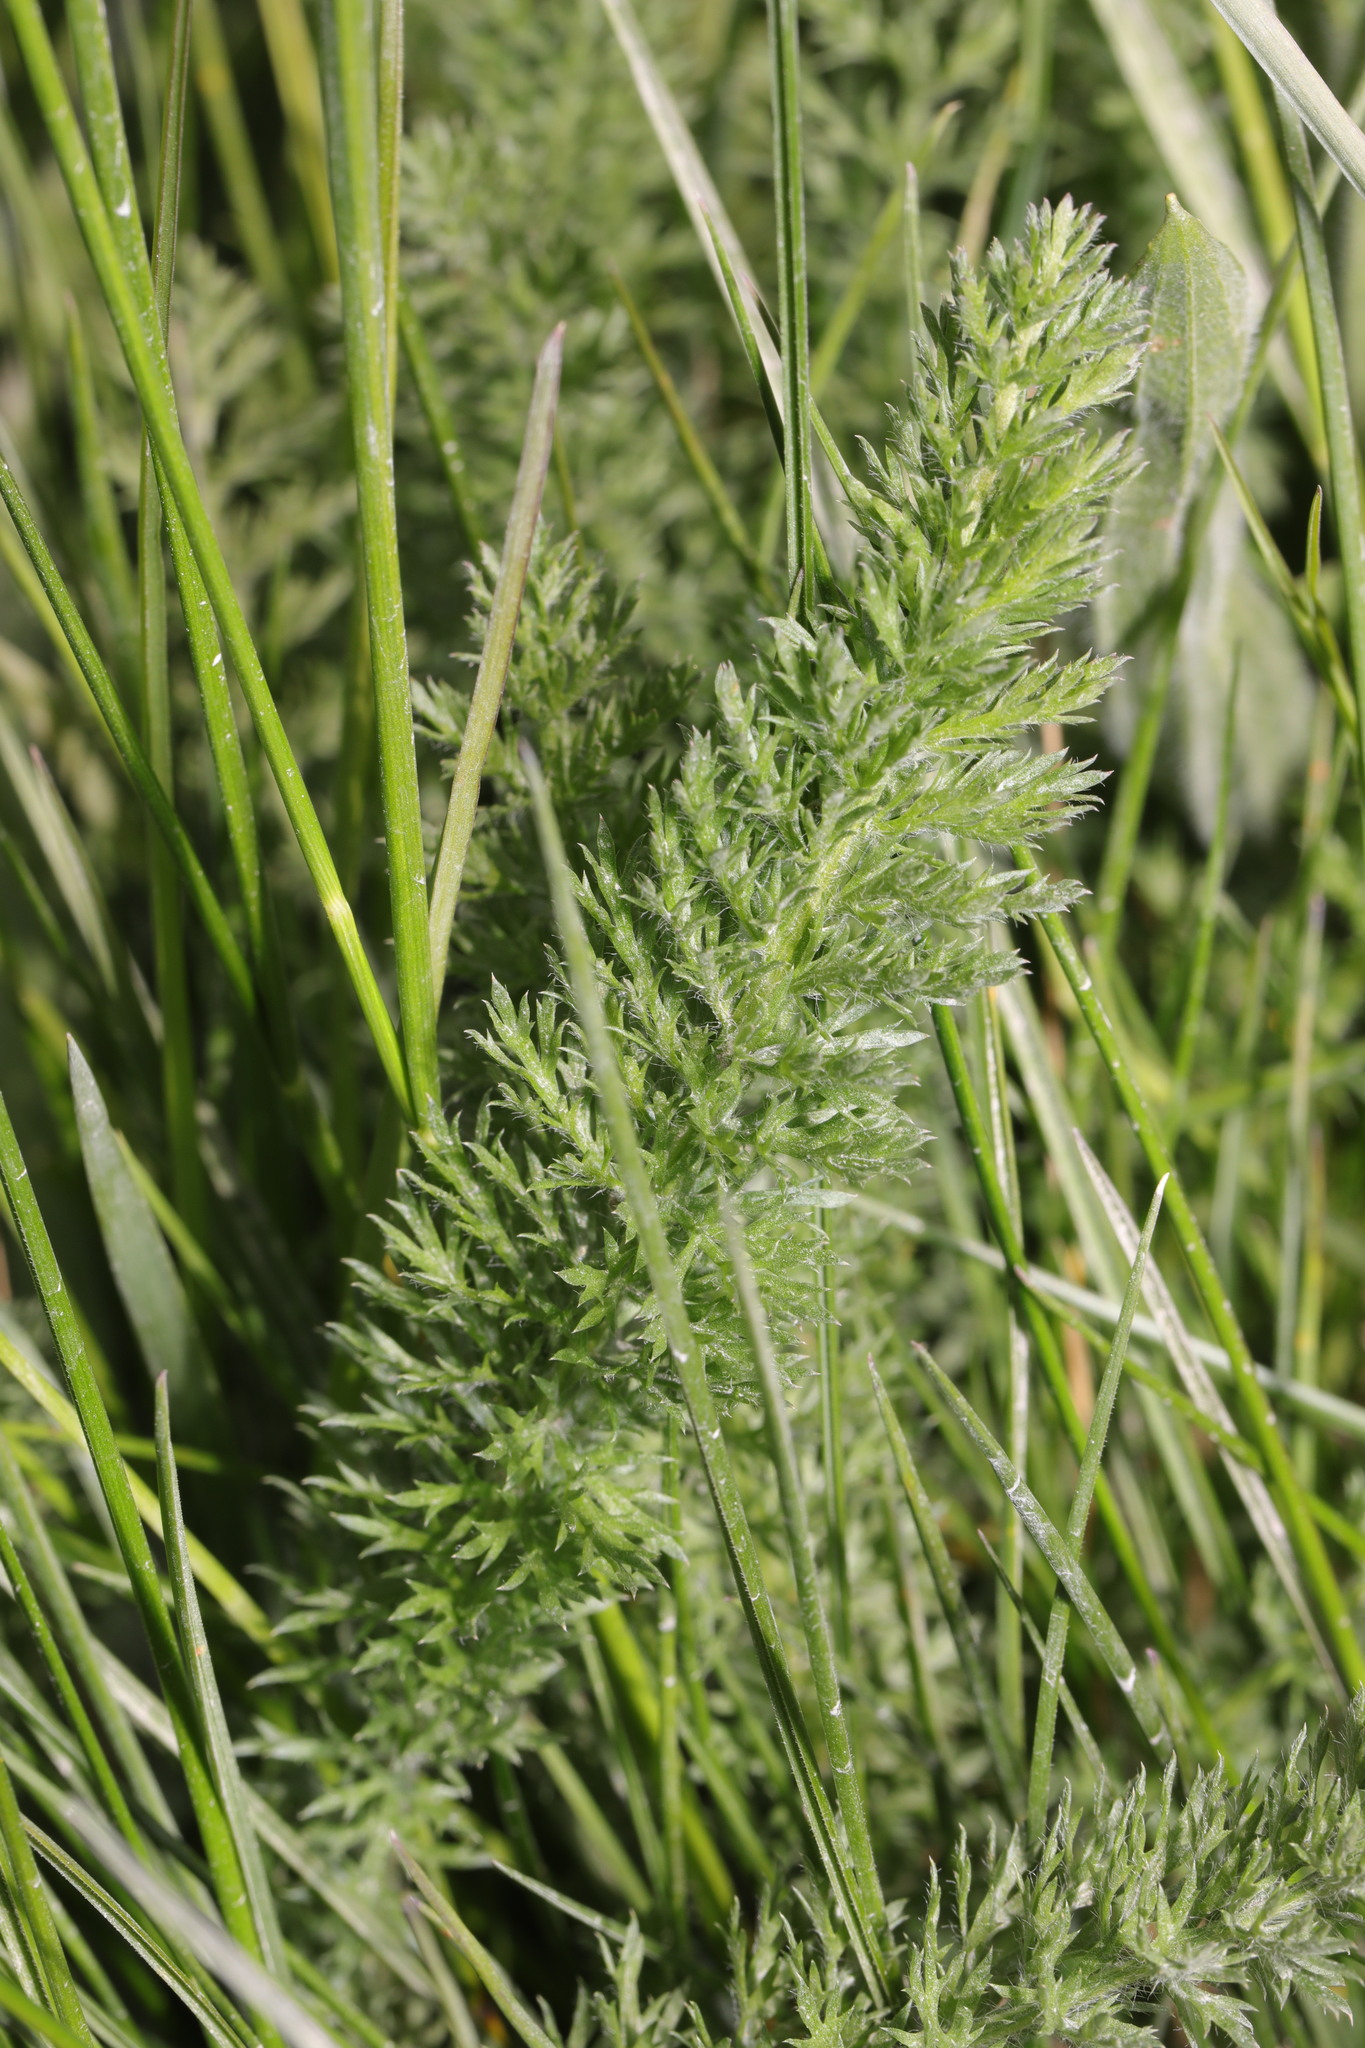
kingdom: Plantae
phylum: Tracheophyta
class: Magnoliopsida
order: Asterales
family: Asteraceae
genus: Achillea
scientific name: Achillea millefolium
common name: Yarrow
